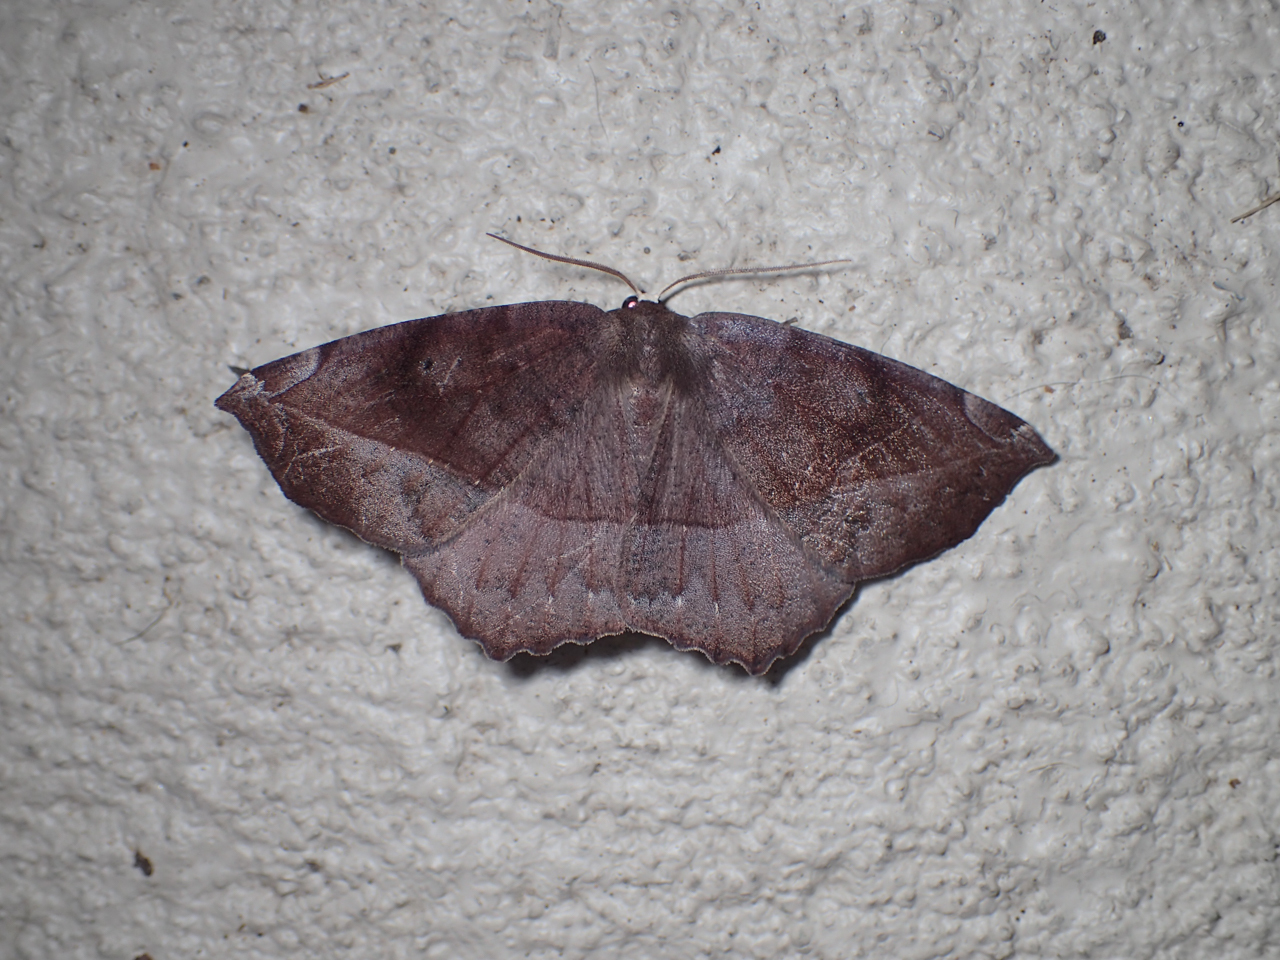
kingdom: Animalia
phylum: Arthropoda
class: Insecta
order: Lepidoptera
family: Geometridae
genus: Eutrapela
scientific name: Eutrapela clemataria
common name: Curved-toothed geometer
